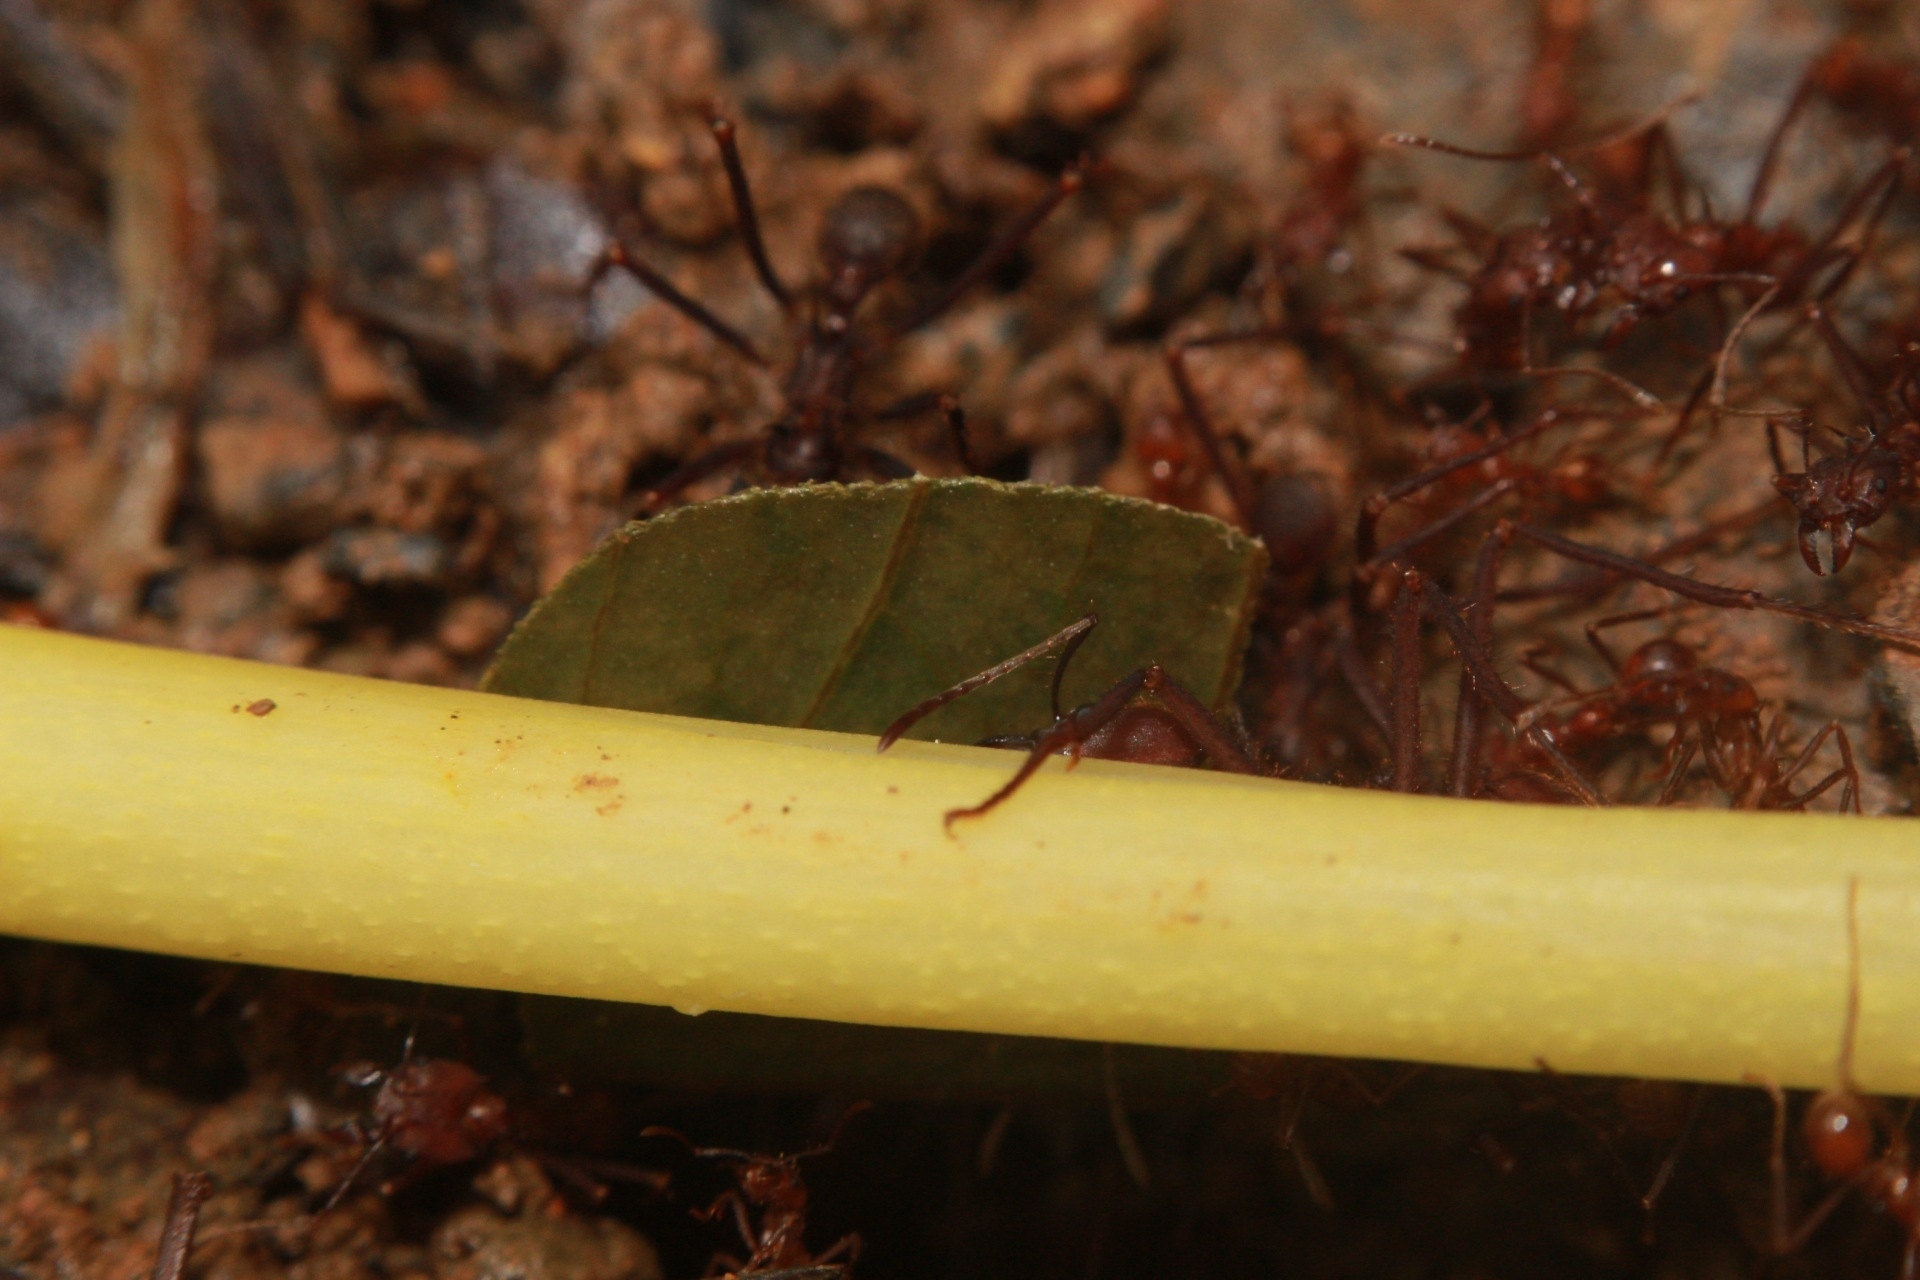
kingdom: Animalia
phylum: Arthropoda
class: Insecta
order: Hymenoptera
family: Formicidae
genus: Atta
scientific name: Atta cephalotes
